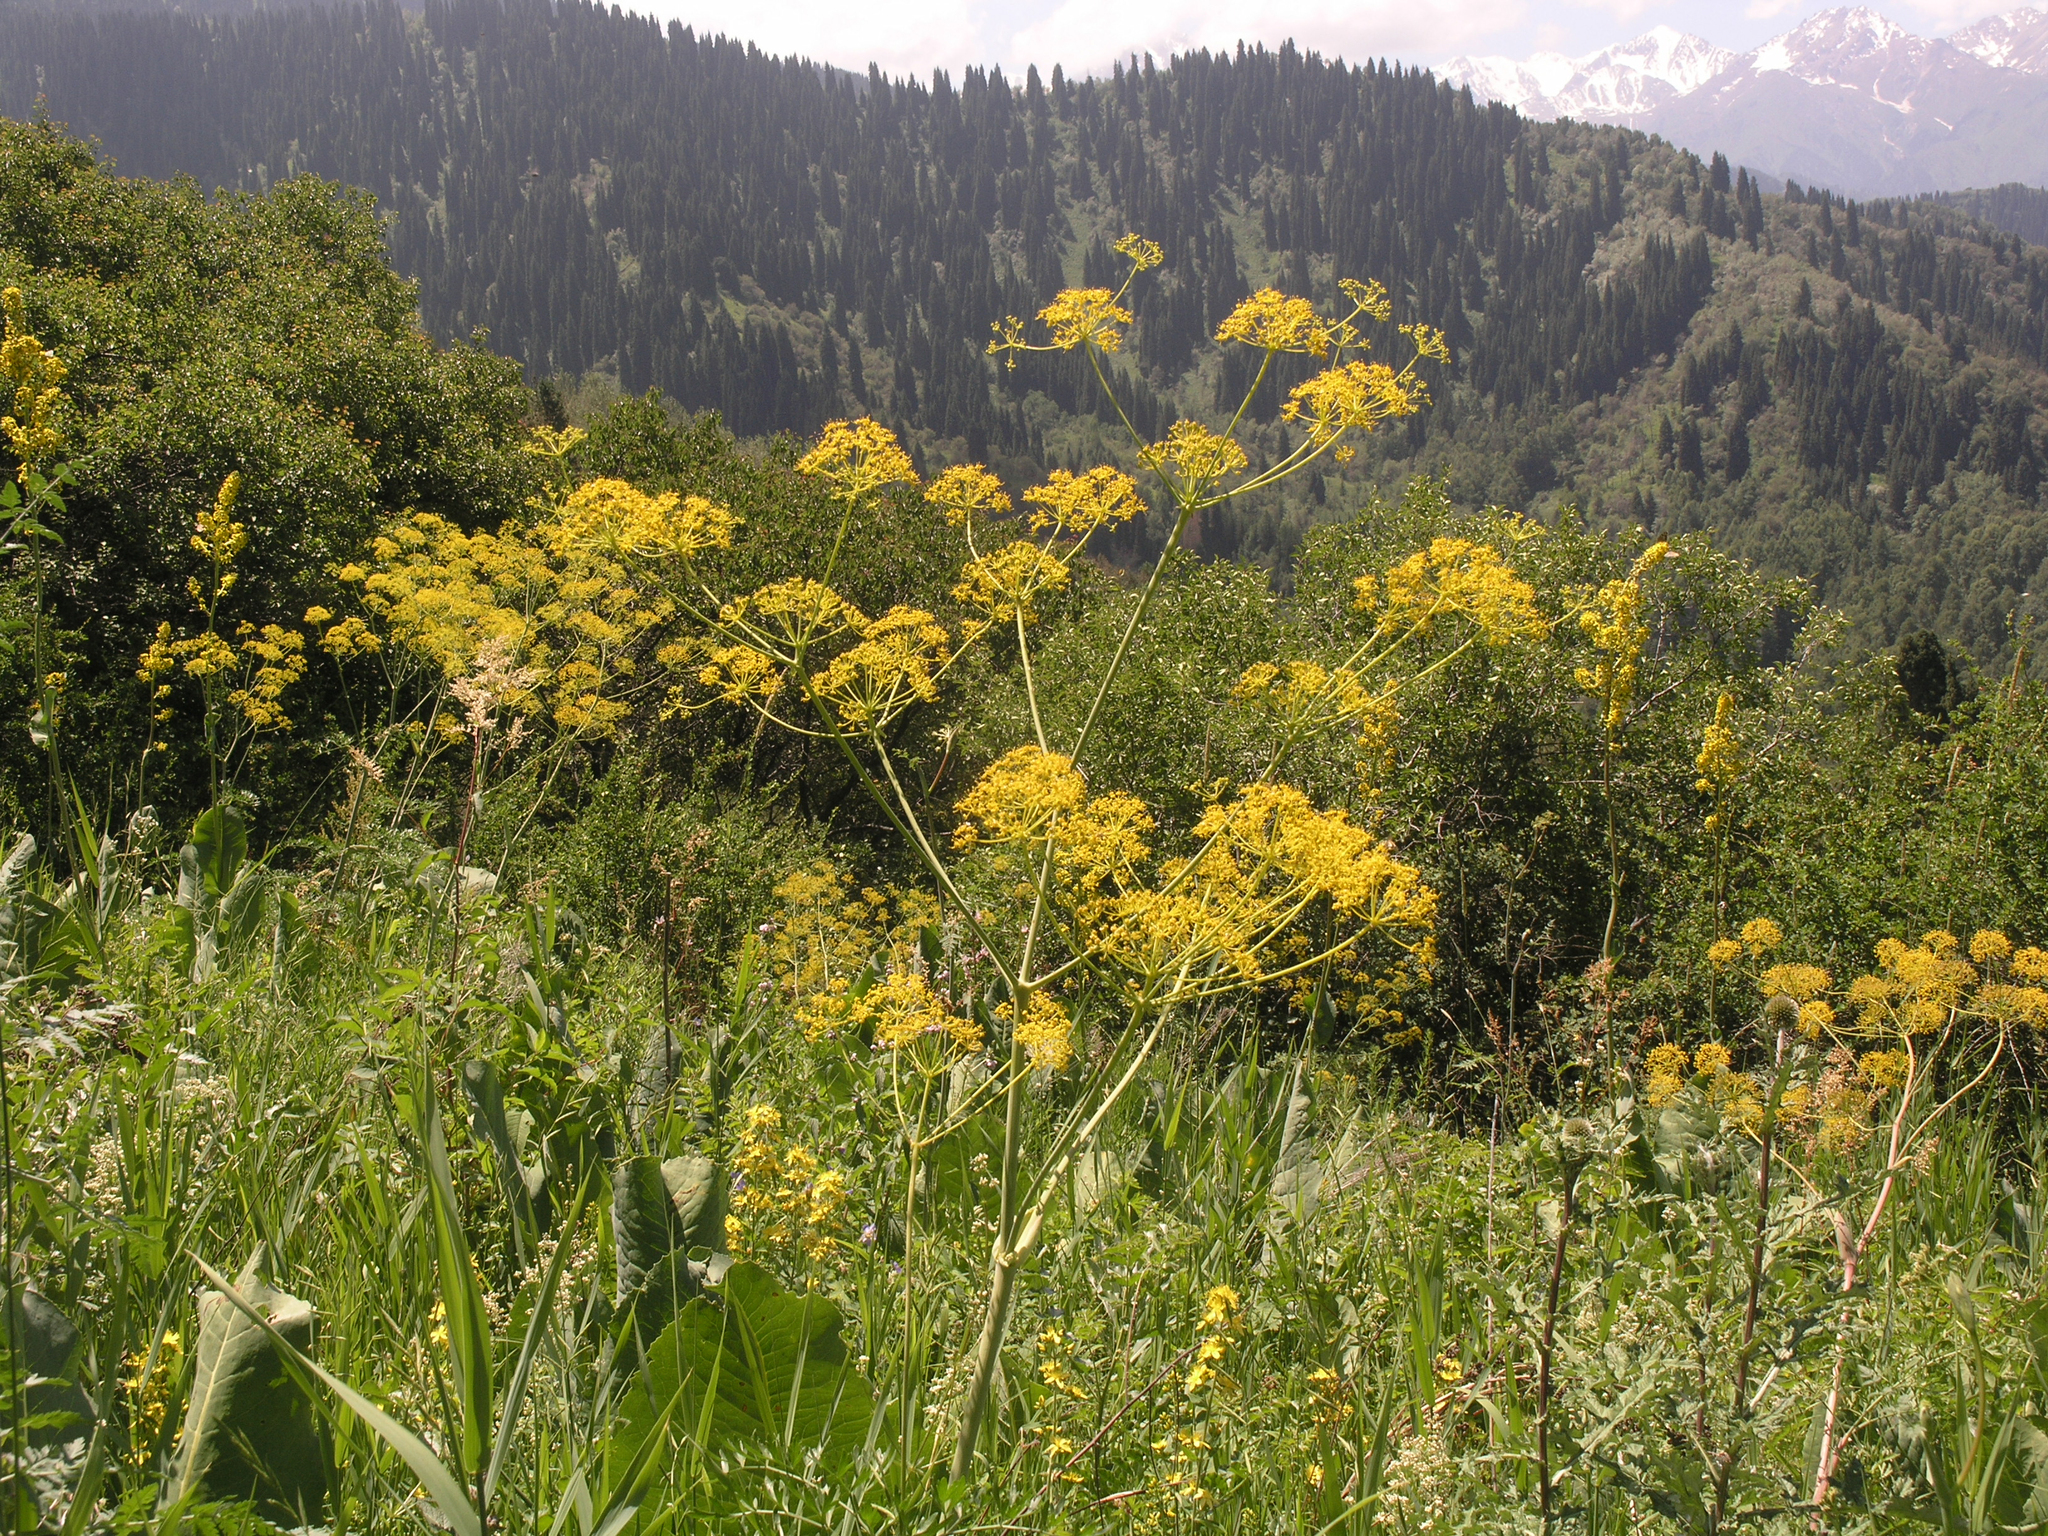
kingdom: Plantae
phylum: Tracheophyta
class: Magnoliopsida
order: Apiales
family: Apiaceae
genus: Ferula
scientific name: Ferula kelleri
